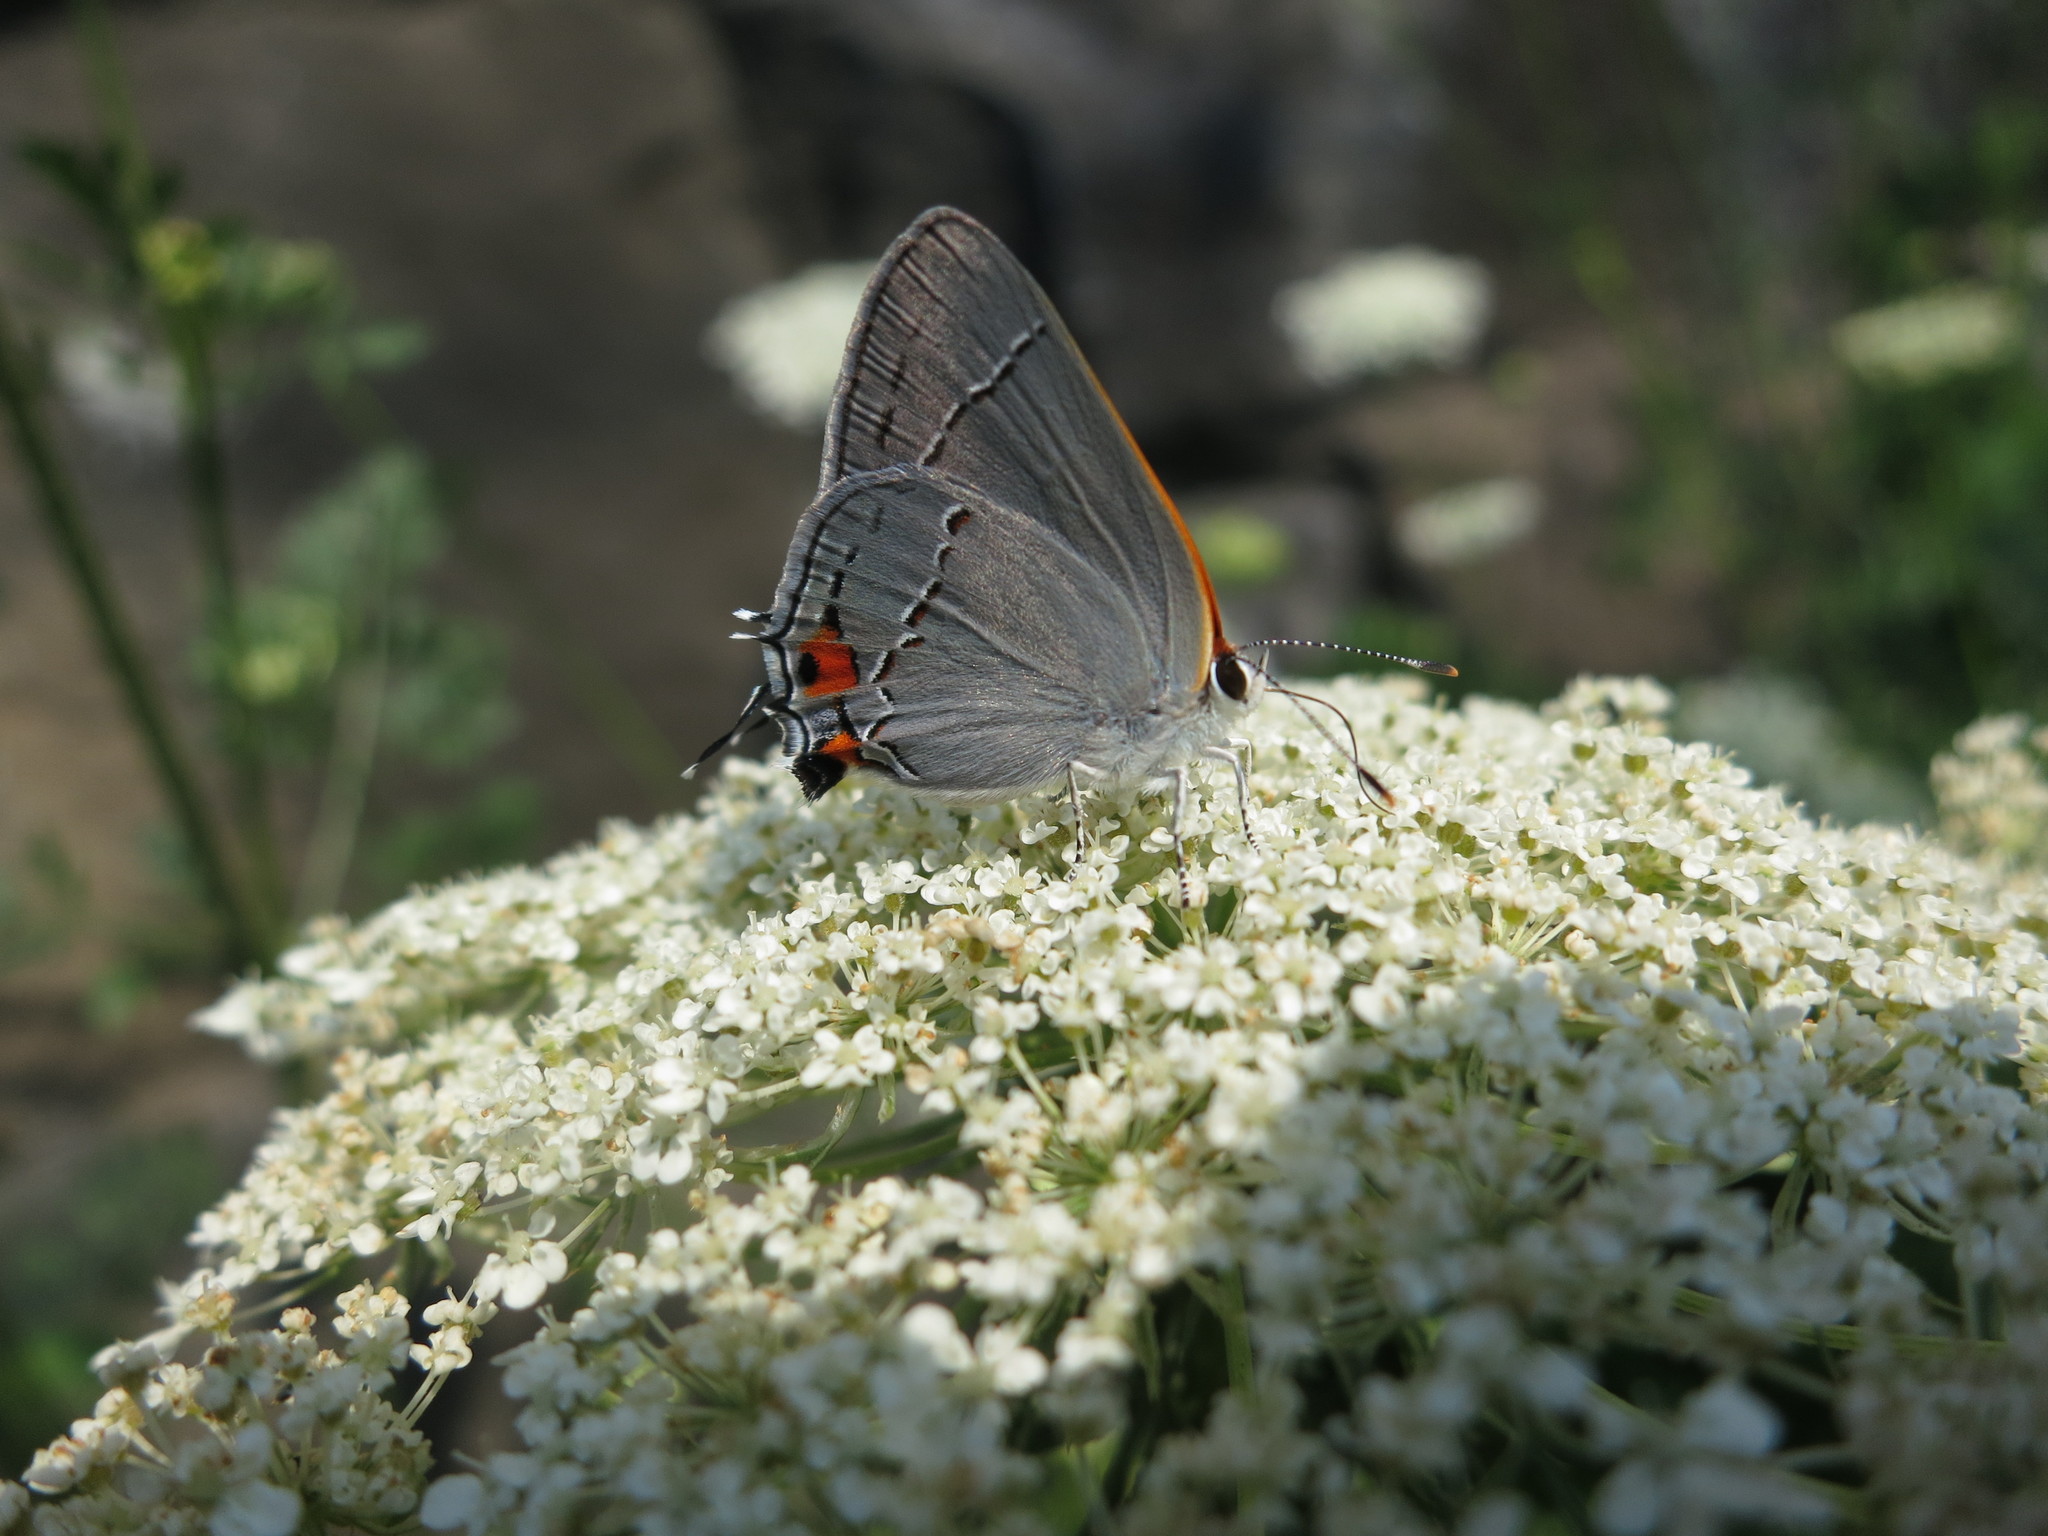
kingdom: Animalia
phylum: Arthropoda
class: Insecta
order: Lepidoptera
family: Lycaenidae
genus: Strymon
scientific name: Strymon melinus
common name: Gray hairstreak
